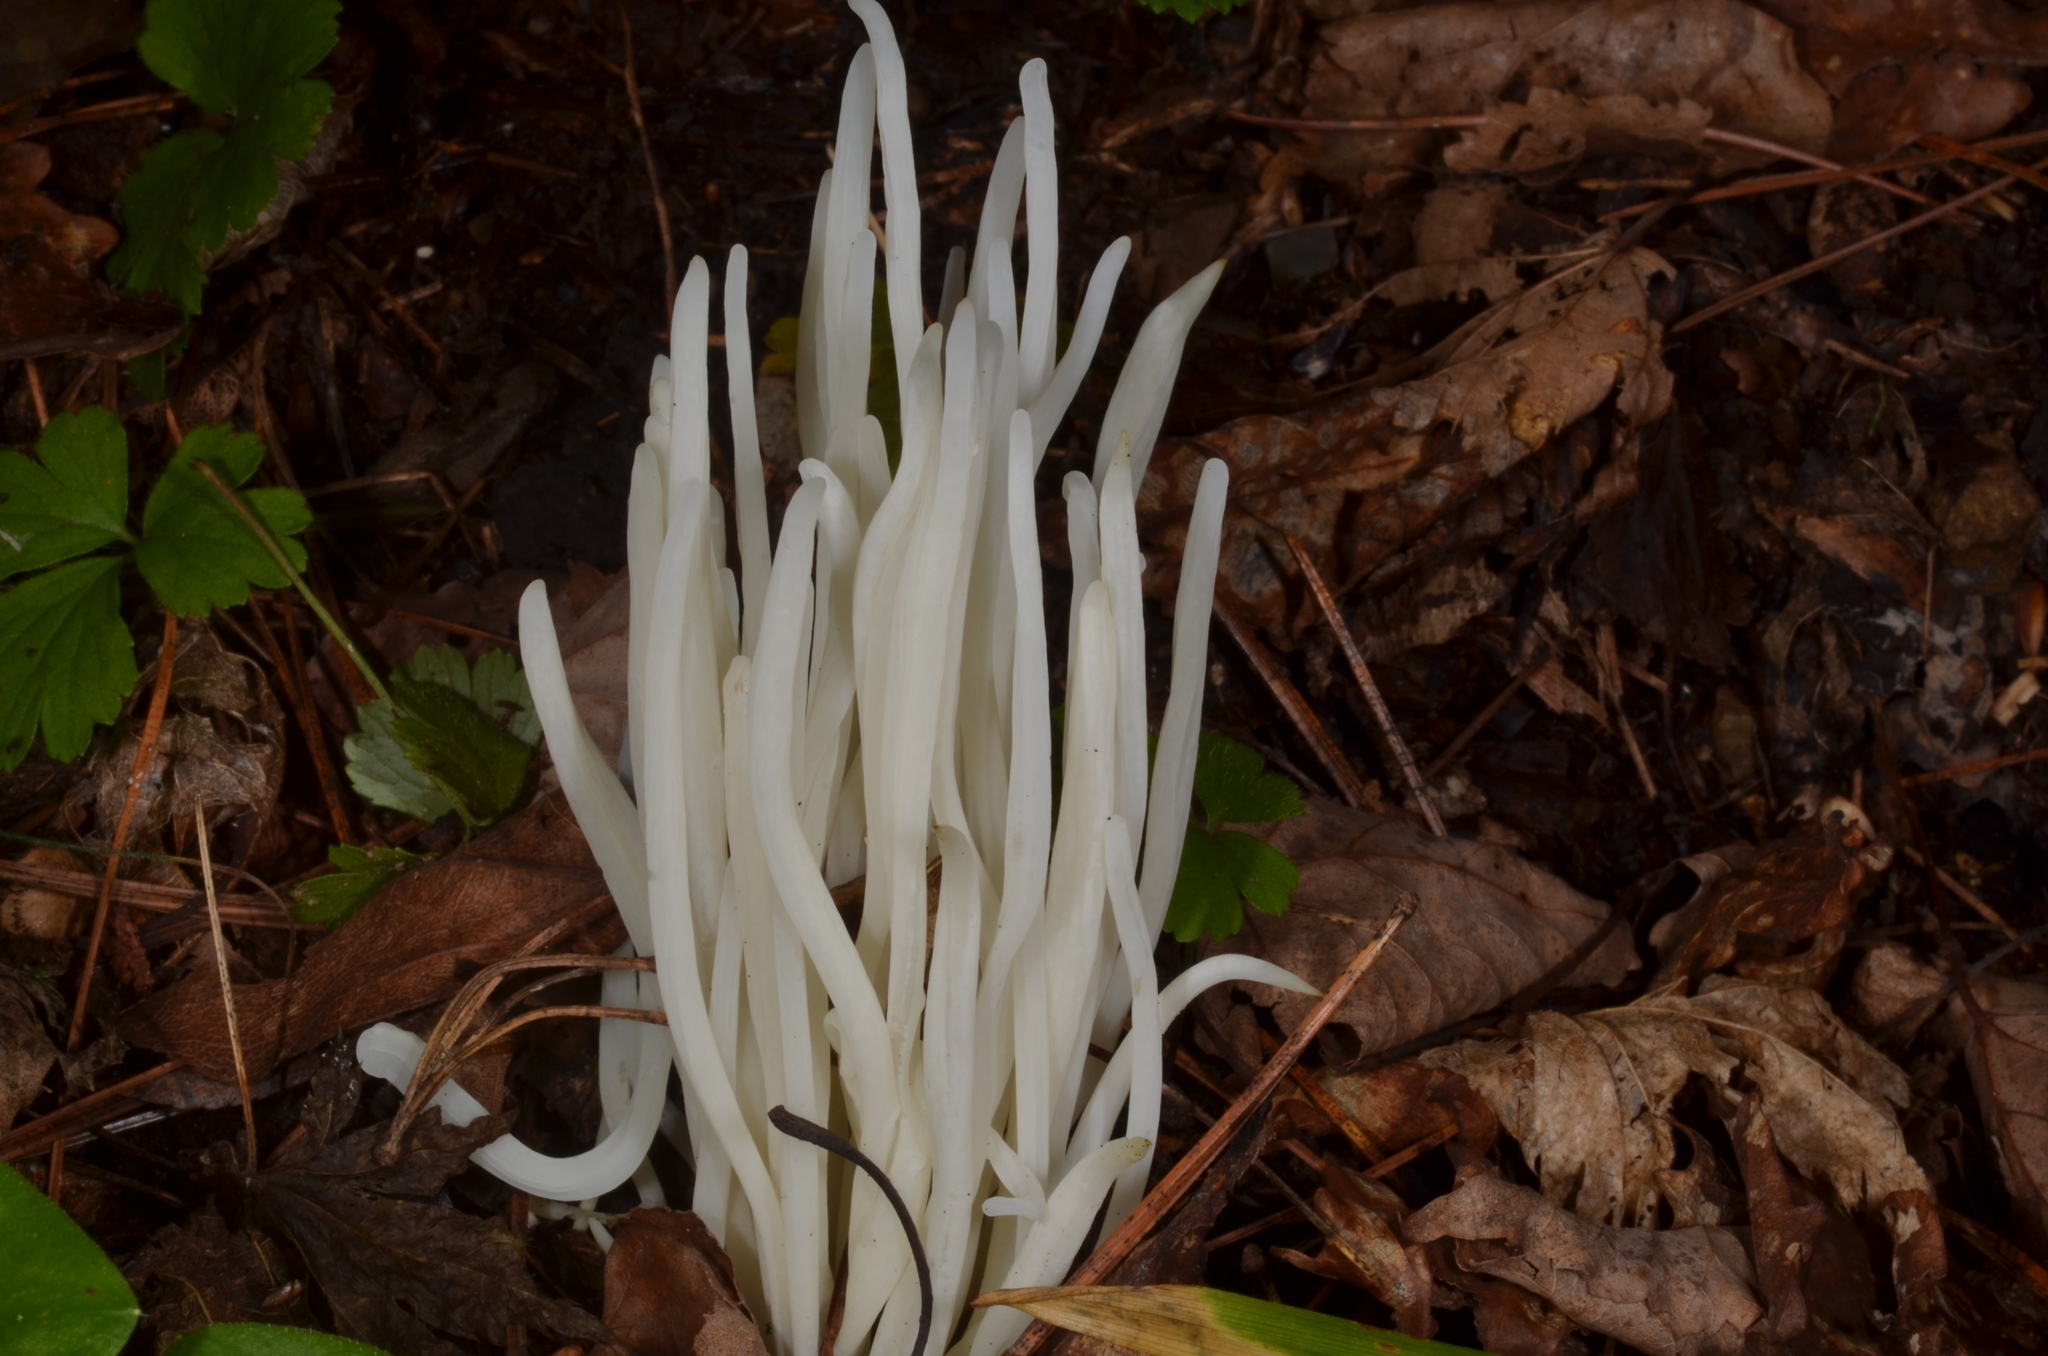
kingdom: Fungi
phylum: Basidiomycota
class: Agaricomycetes
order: Agaricales
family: Clavariaceae
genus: Clavaria
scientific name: Clavaria fragilis
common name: White spindles
